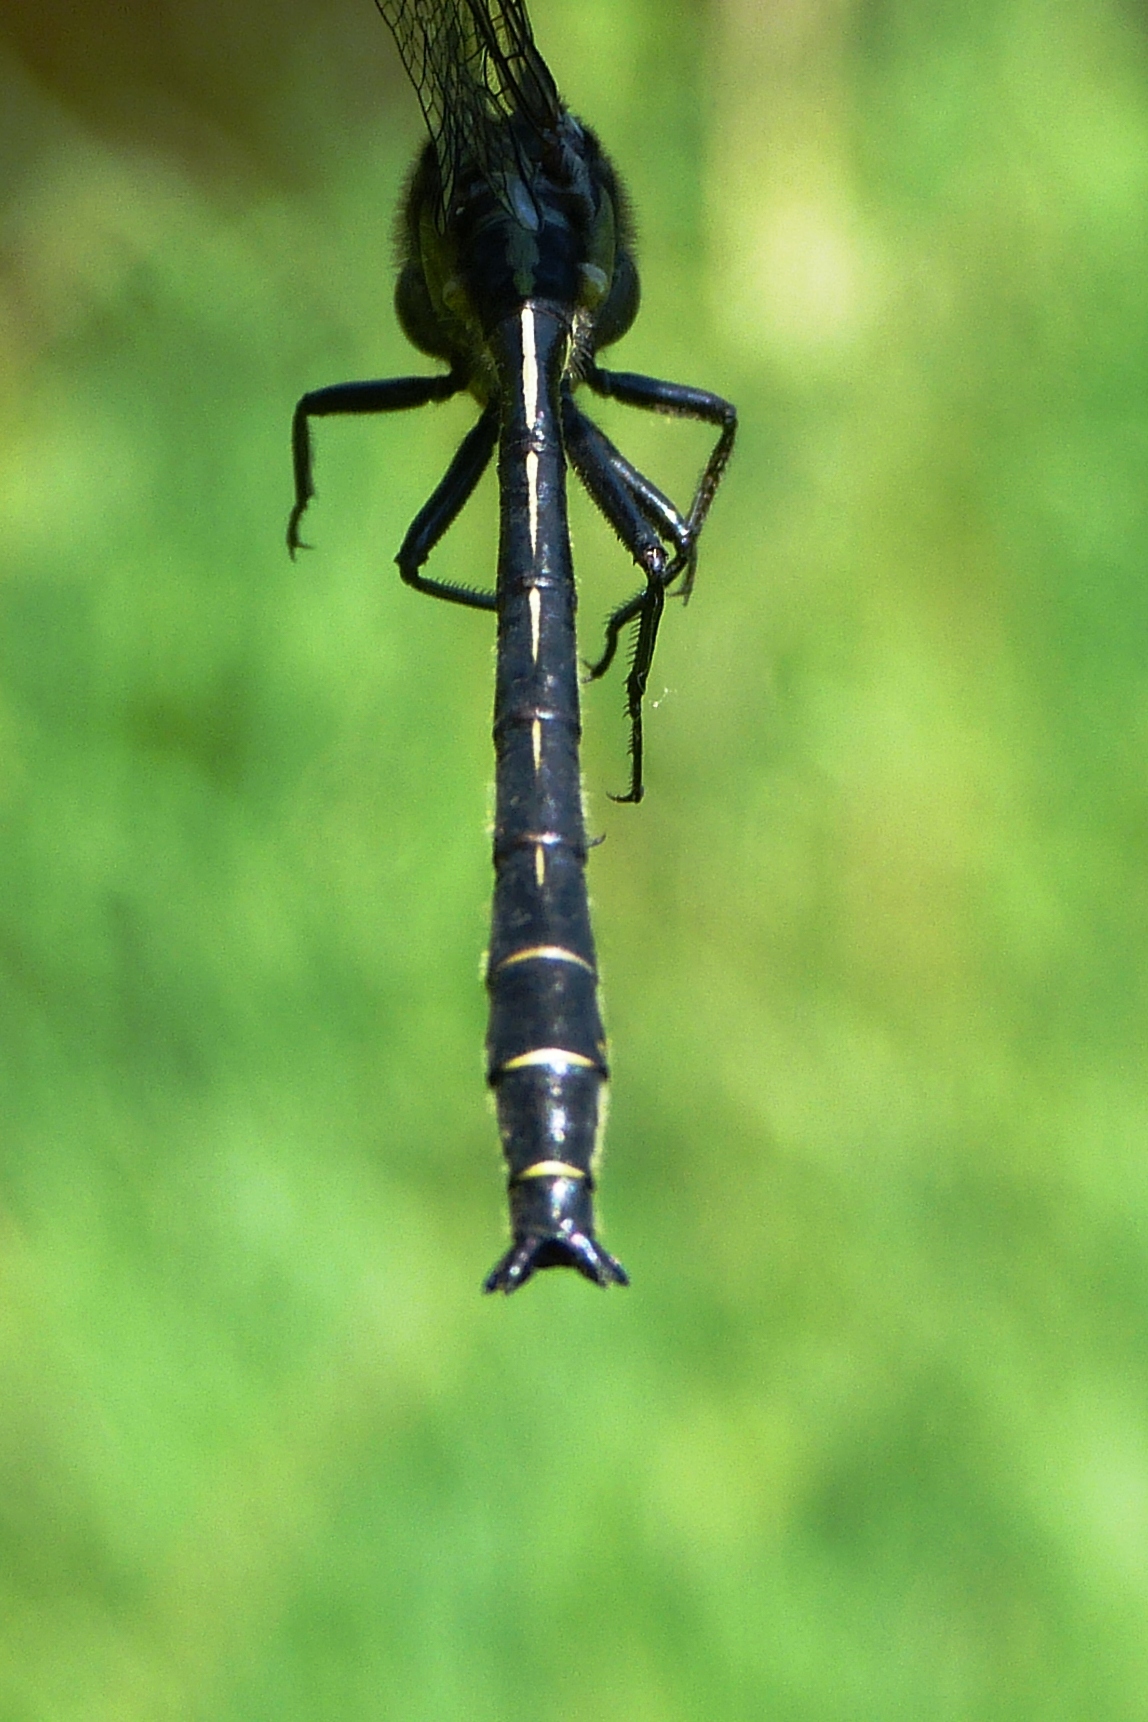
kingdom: Animalia
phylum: Arthropoda
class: Insecta
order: Odonata
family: Gomphidae
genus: Phanogomphus
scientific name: Phanogomphus descriptus
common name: Harpoon clubtail
